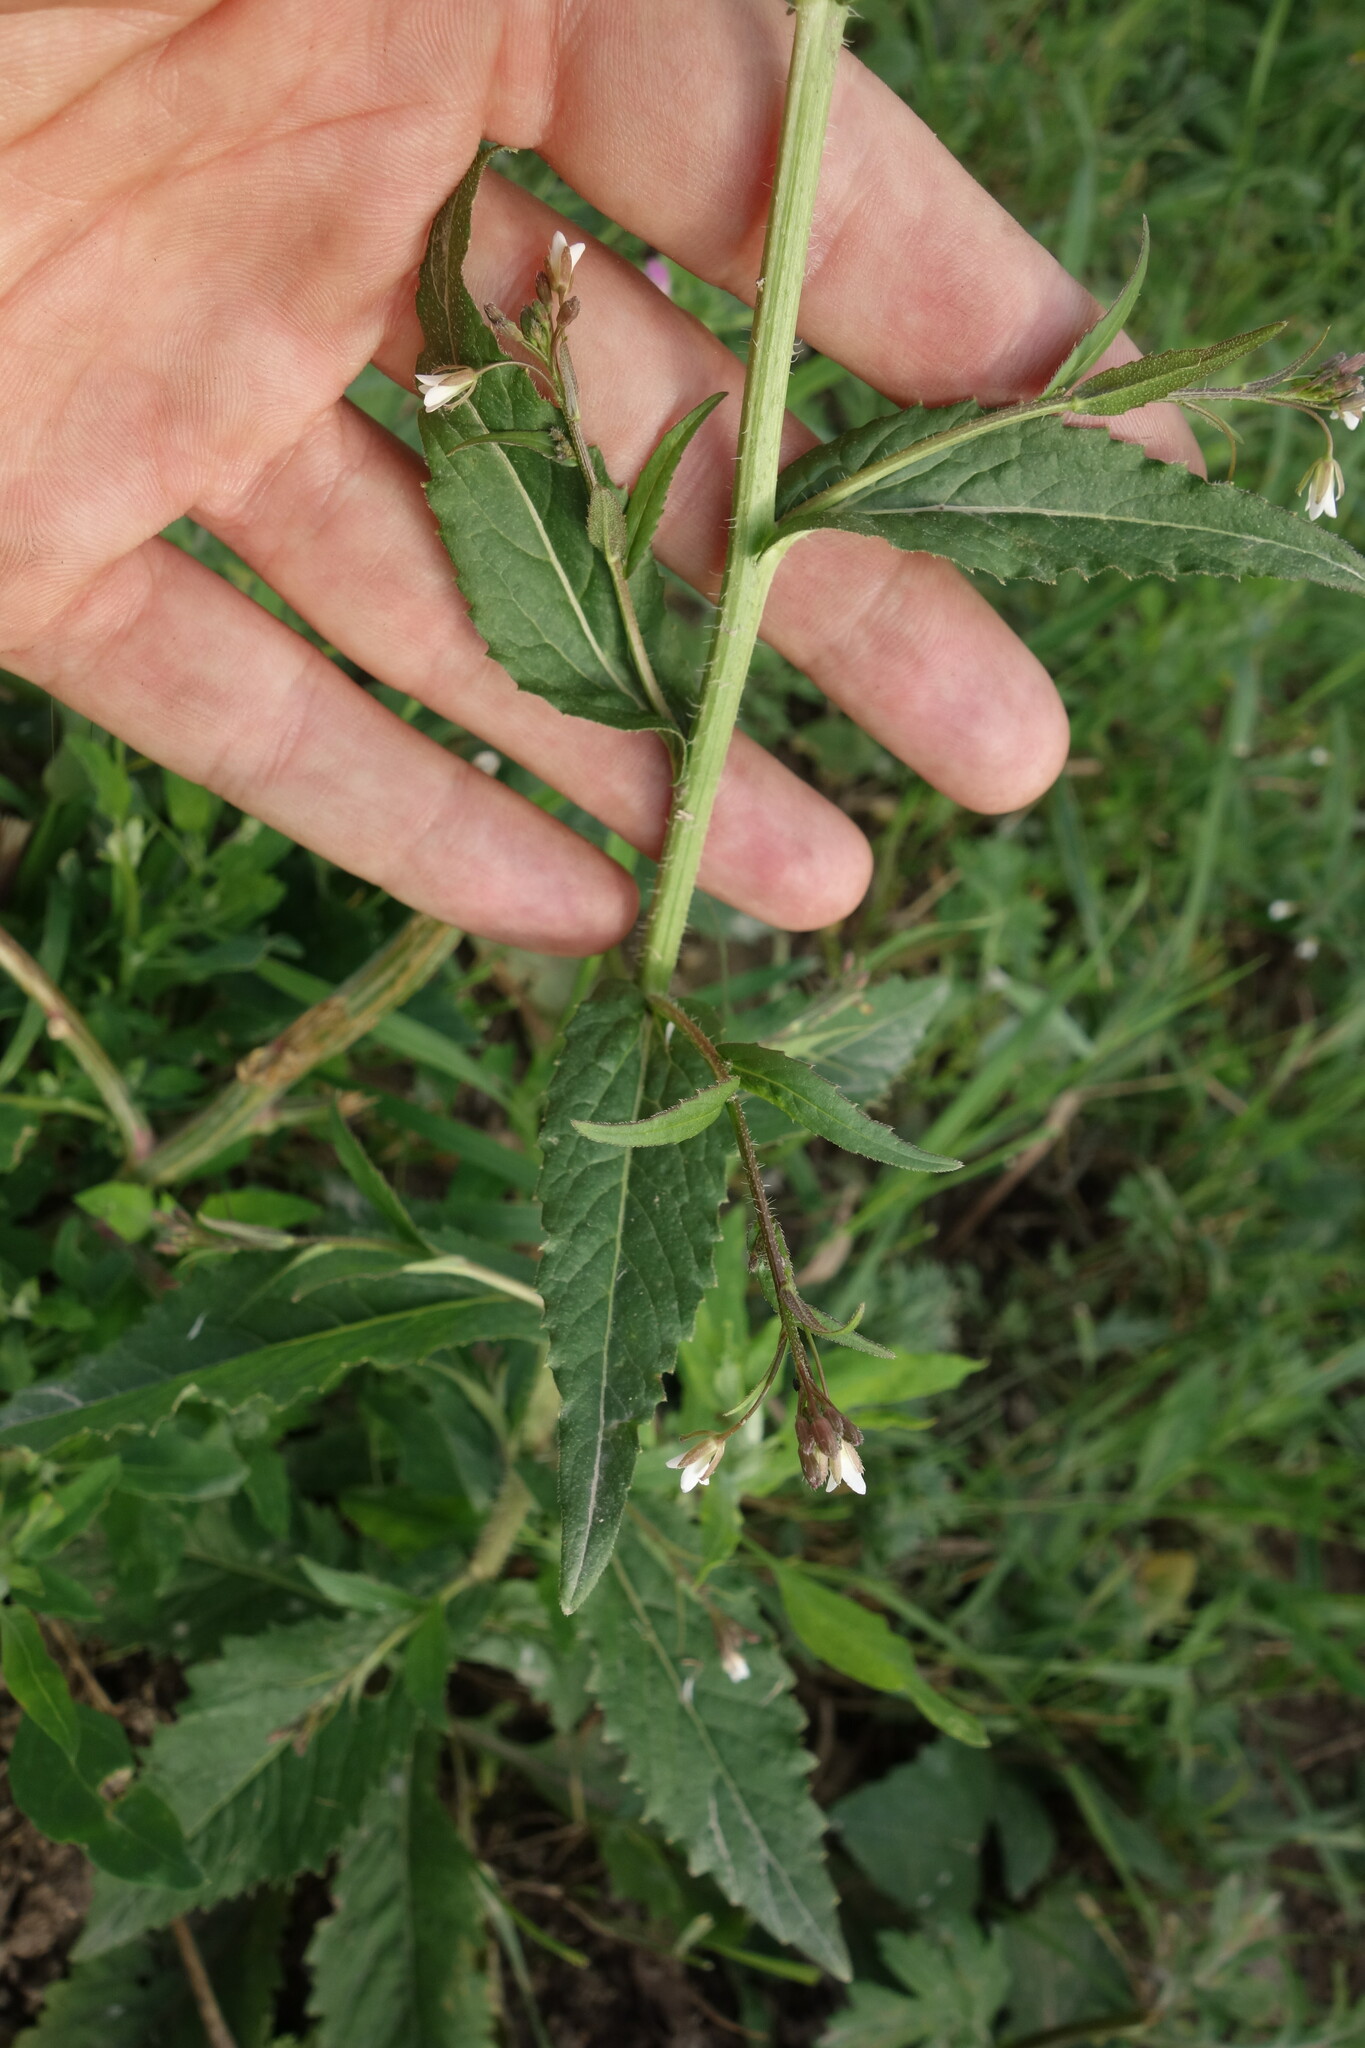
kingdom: Plantae
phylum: Tracheophyta
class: Magnoliopsida
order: Brassicales
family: Brassicaceae
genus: Catolobus
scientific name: Catolobus pendulus
